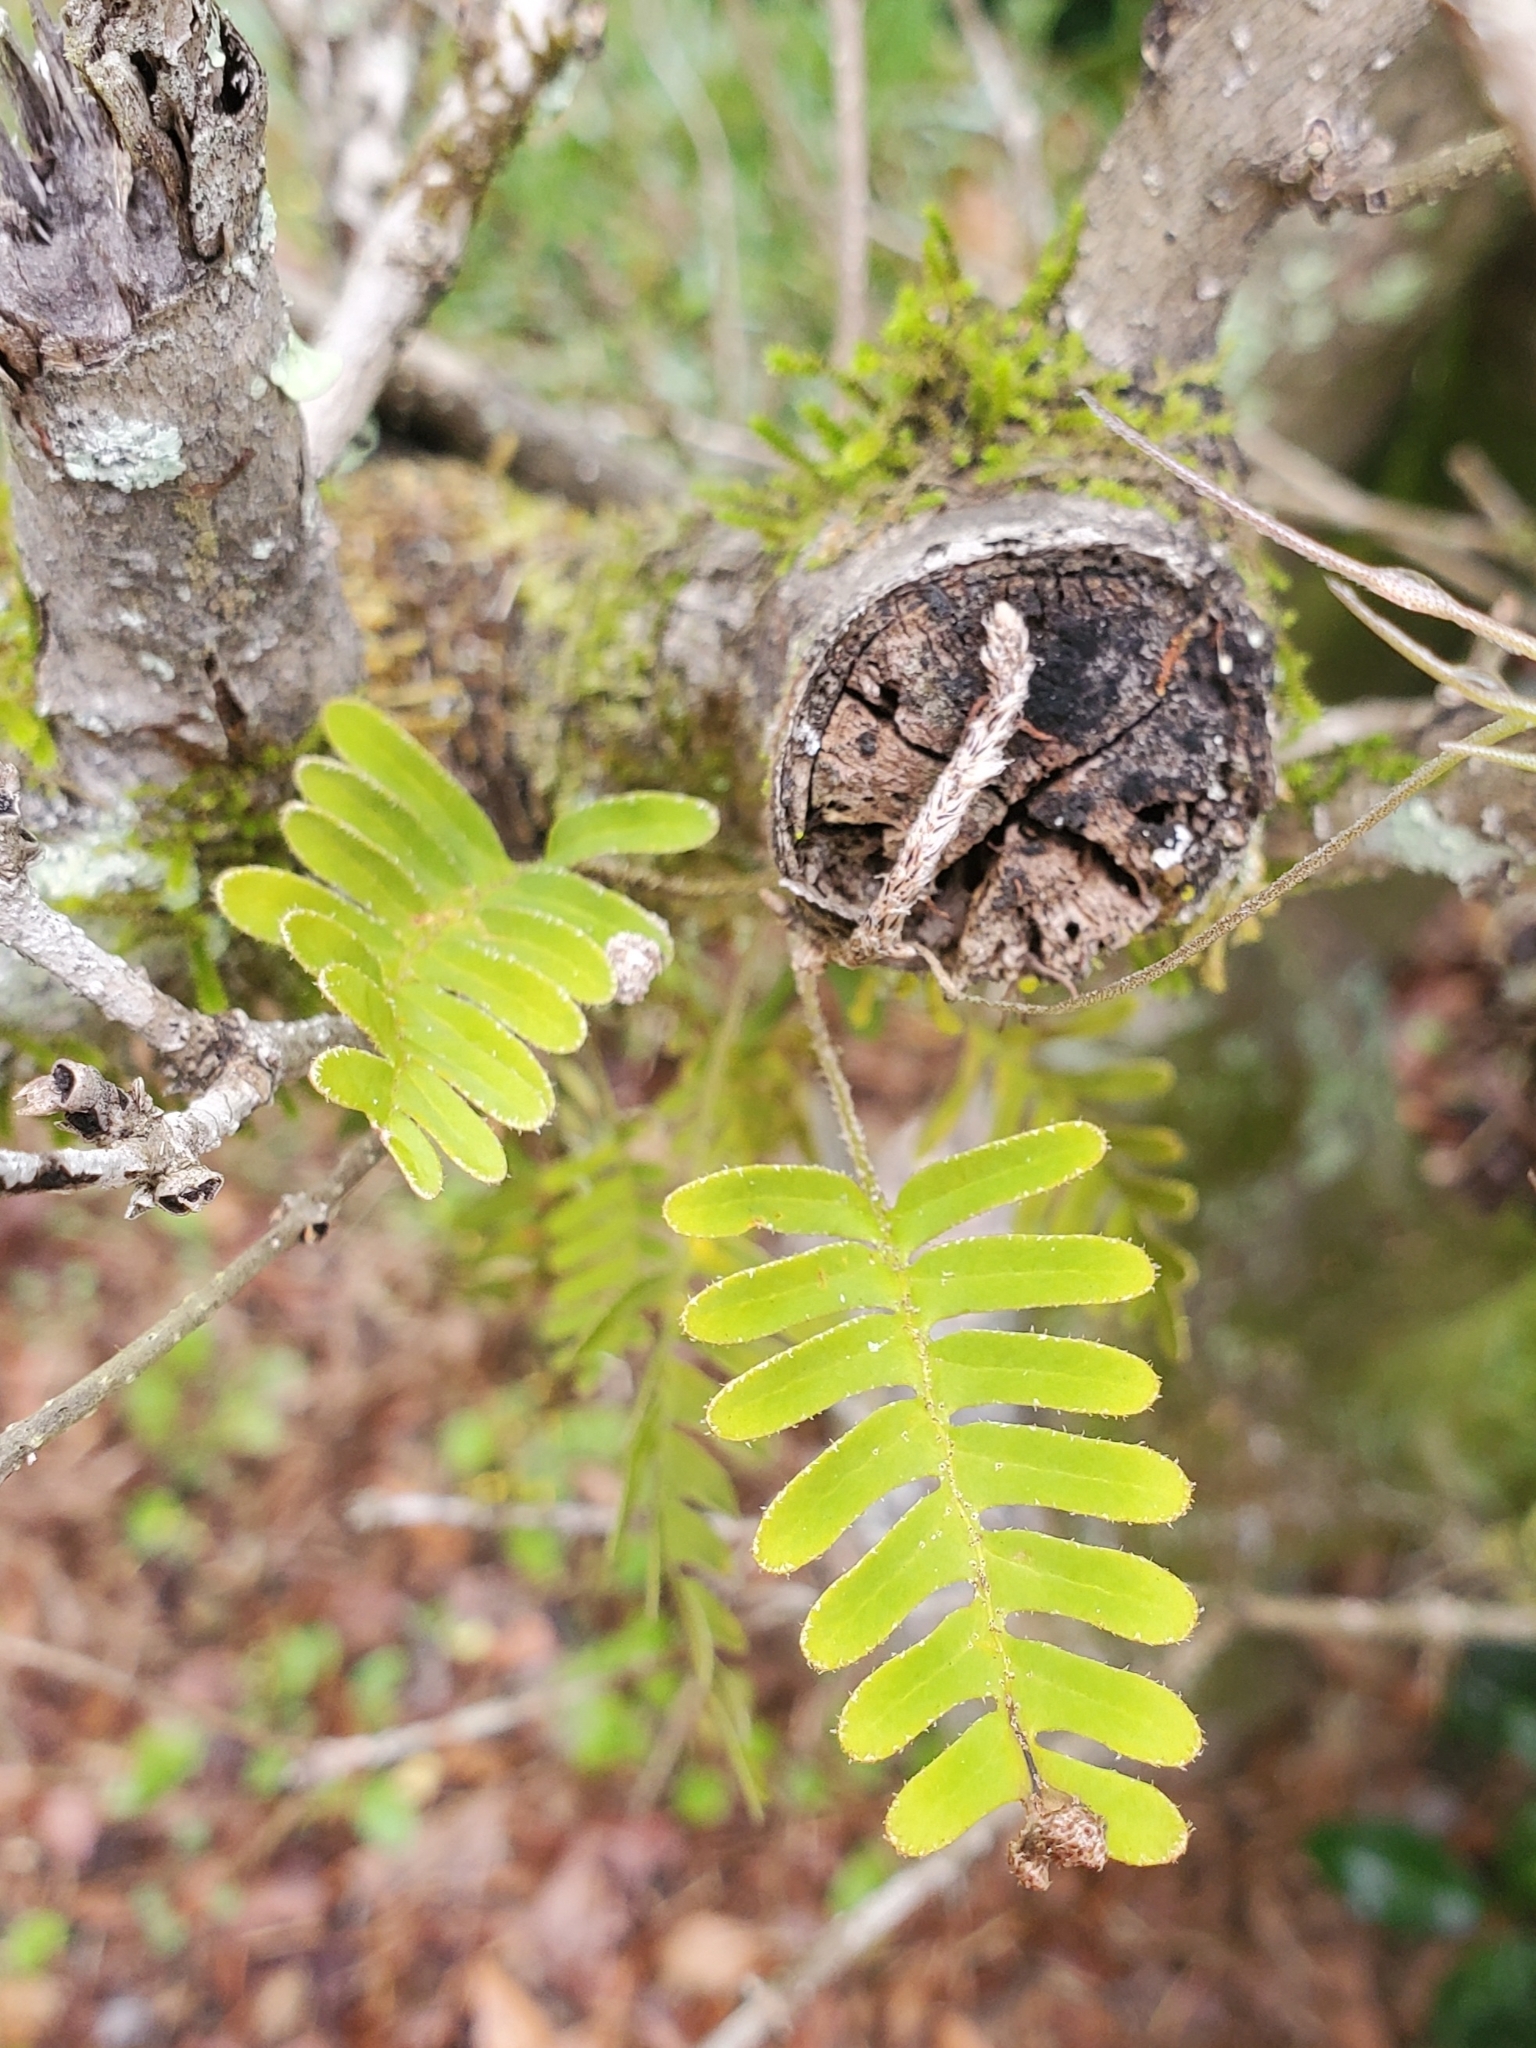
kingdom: Plantae
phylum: Tracheophyta
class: Polypodiopsida
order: Polypodiales
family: Polypodiaceae
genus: Pleopeltis
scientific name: Pleopeltis michauxiana
